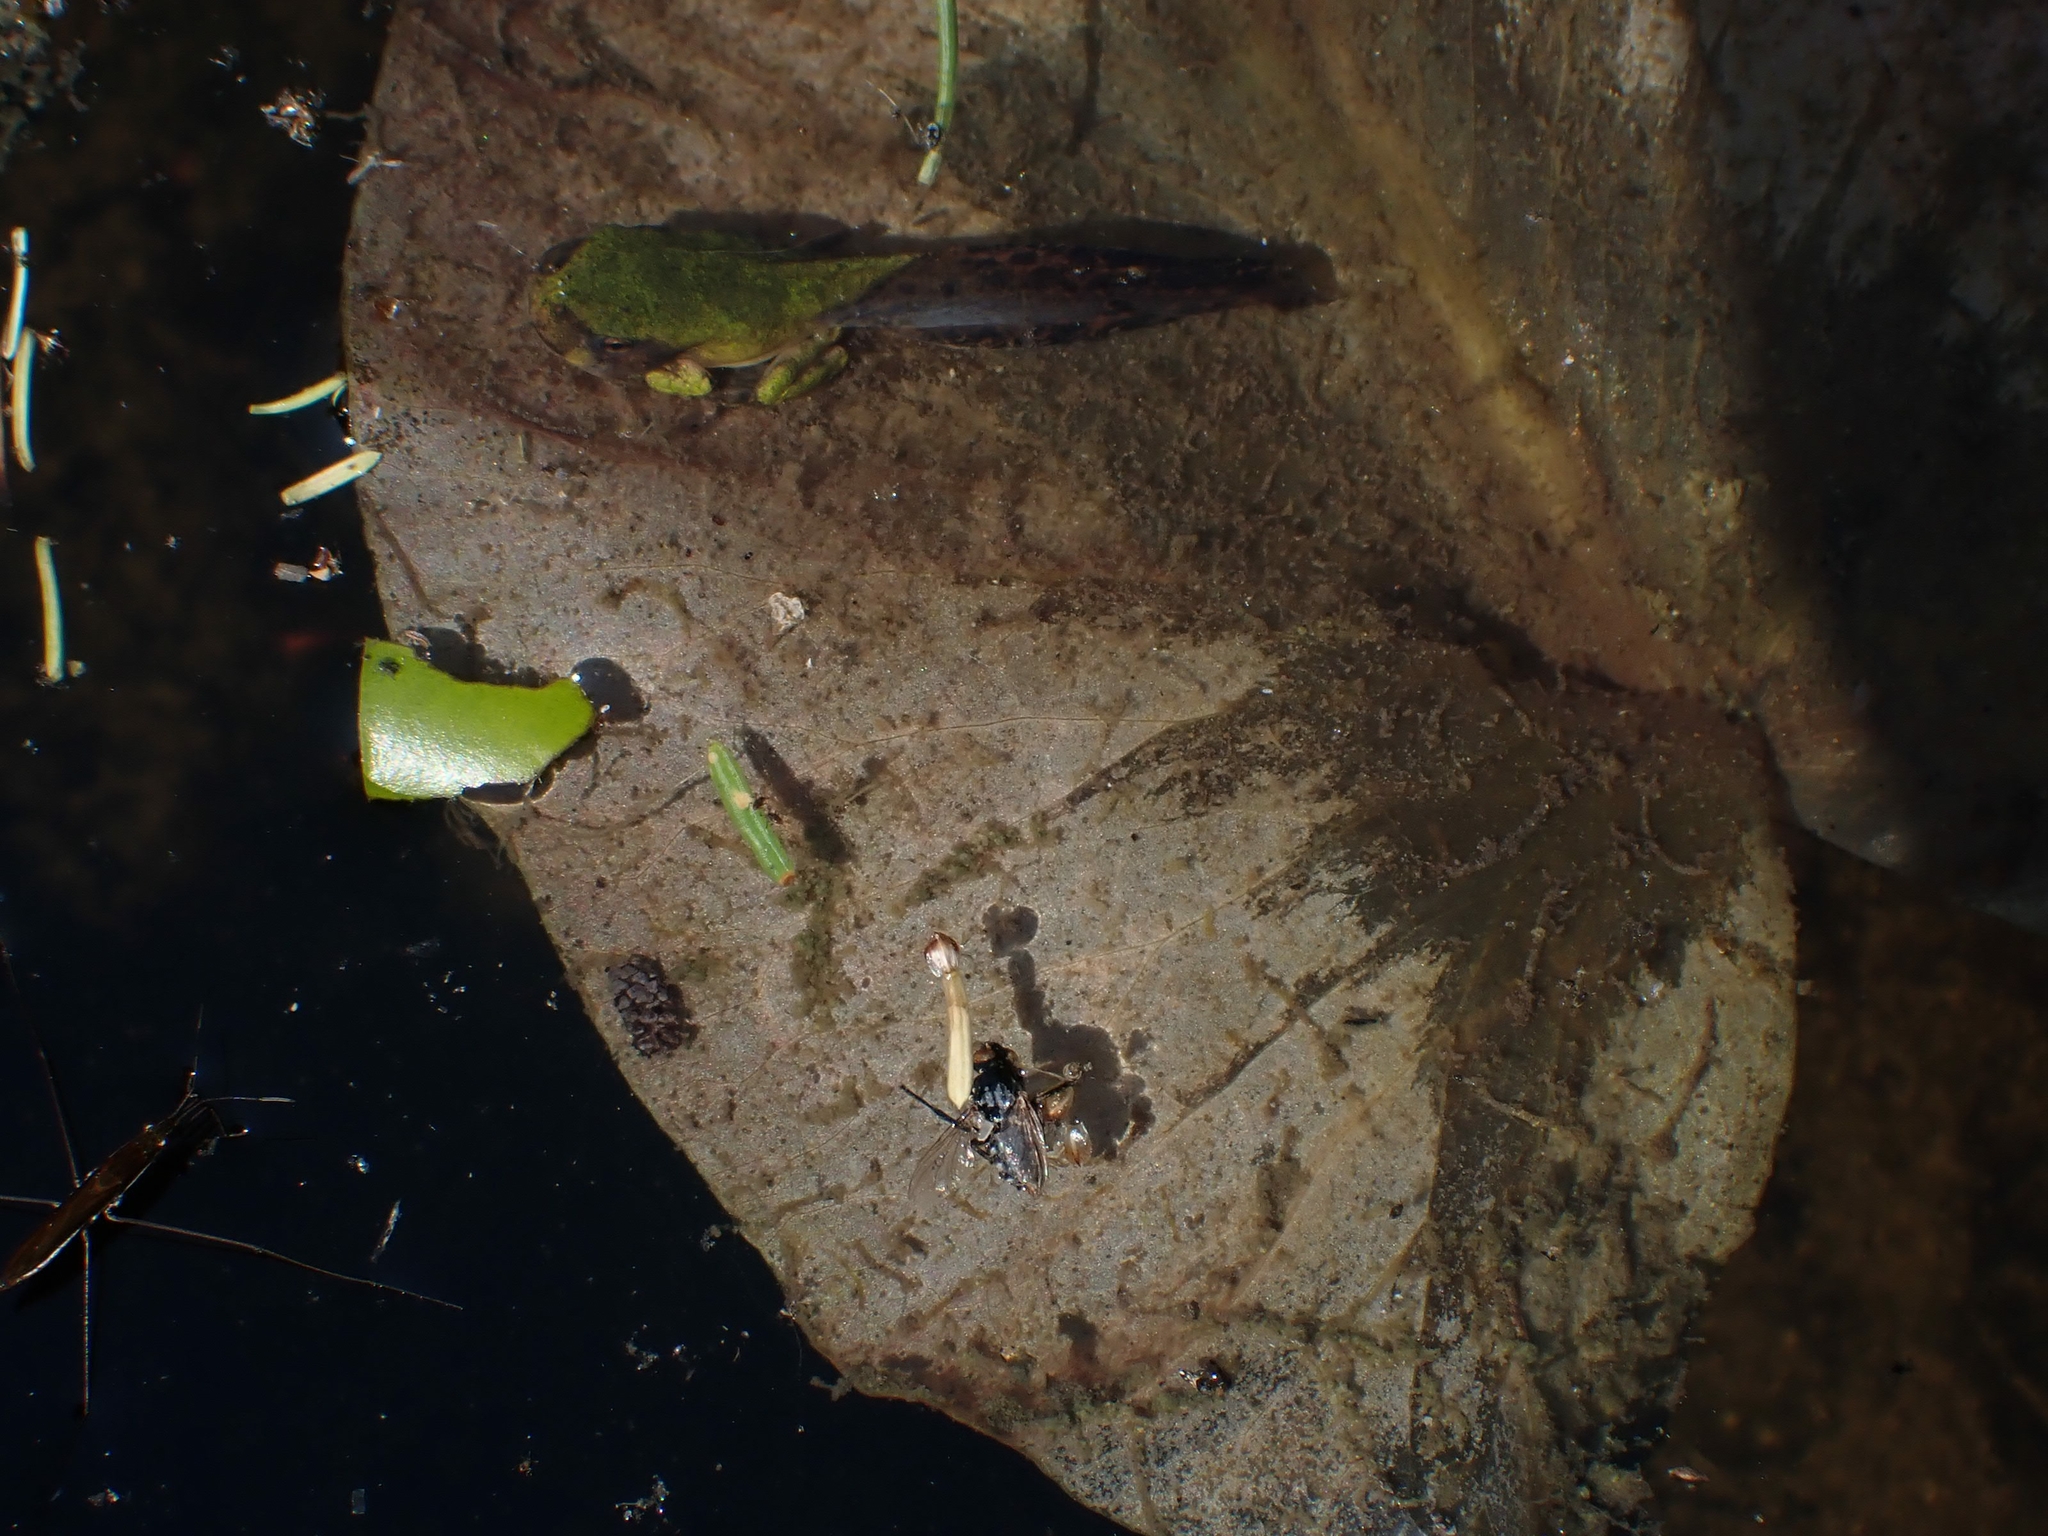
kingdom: Animalia
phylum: Chordata
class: Amphibia
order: Anura
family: Hylidae
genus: Dryophytes
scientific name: Dryophytes versicolor
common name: Gray treefrog
